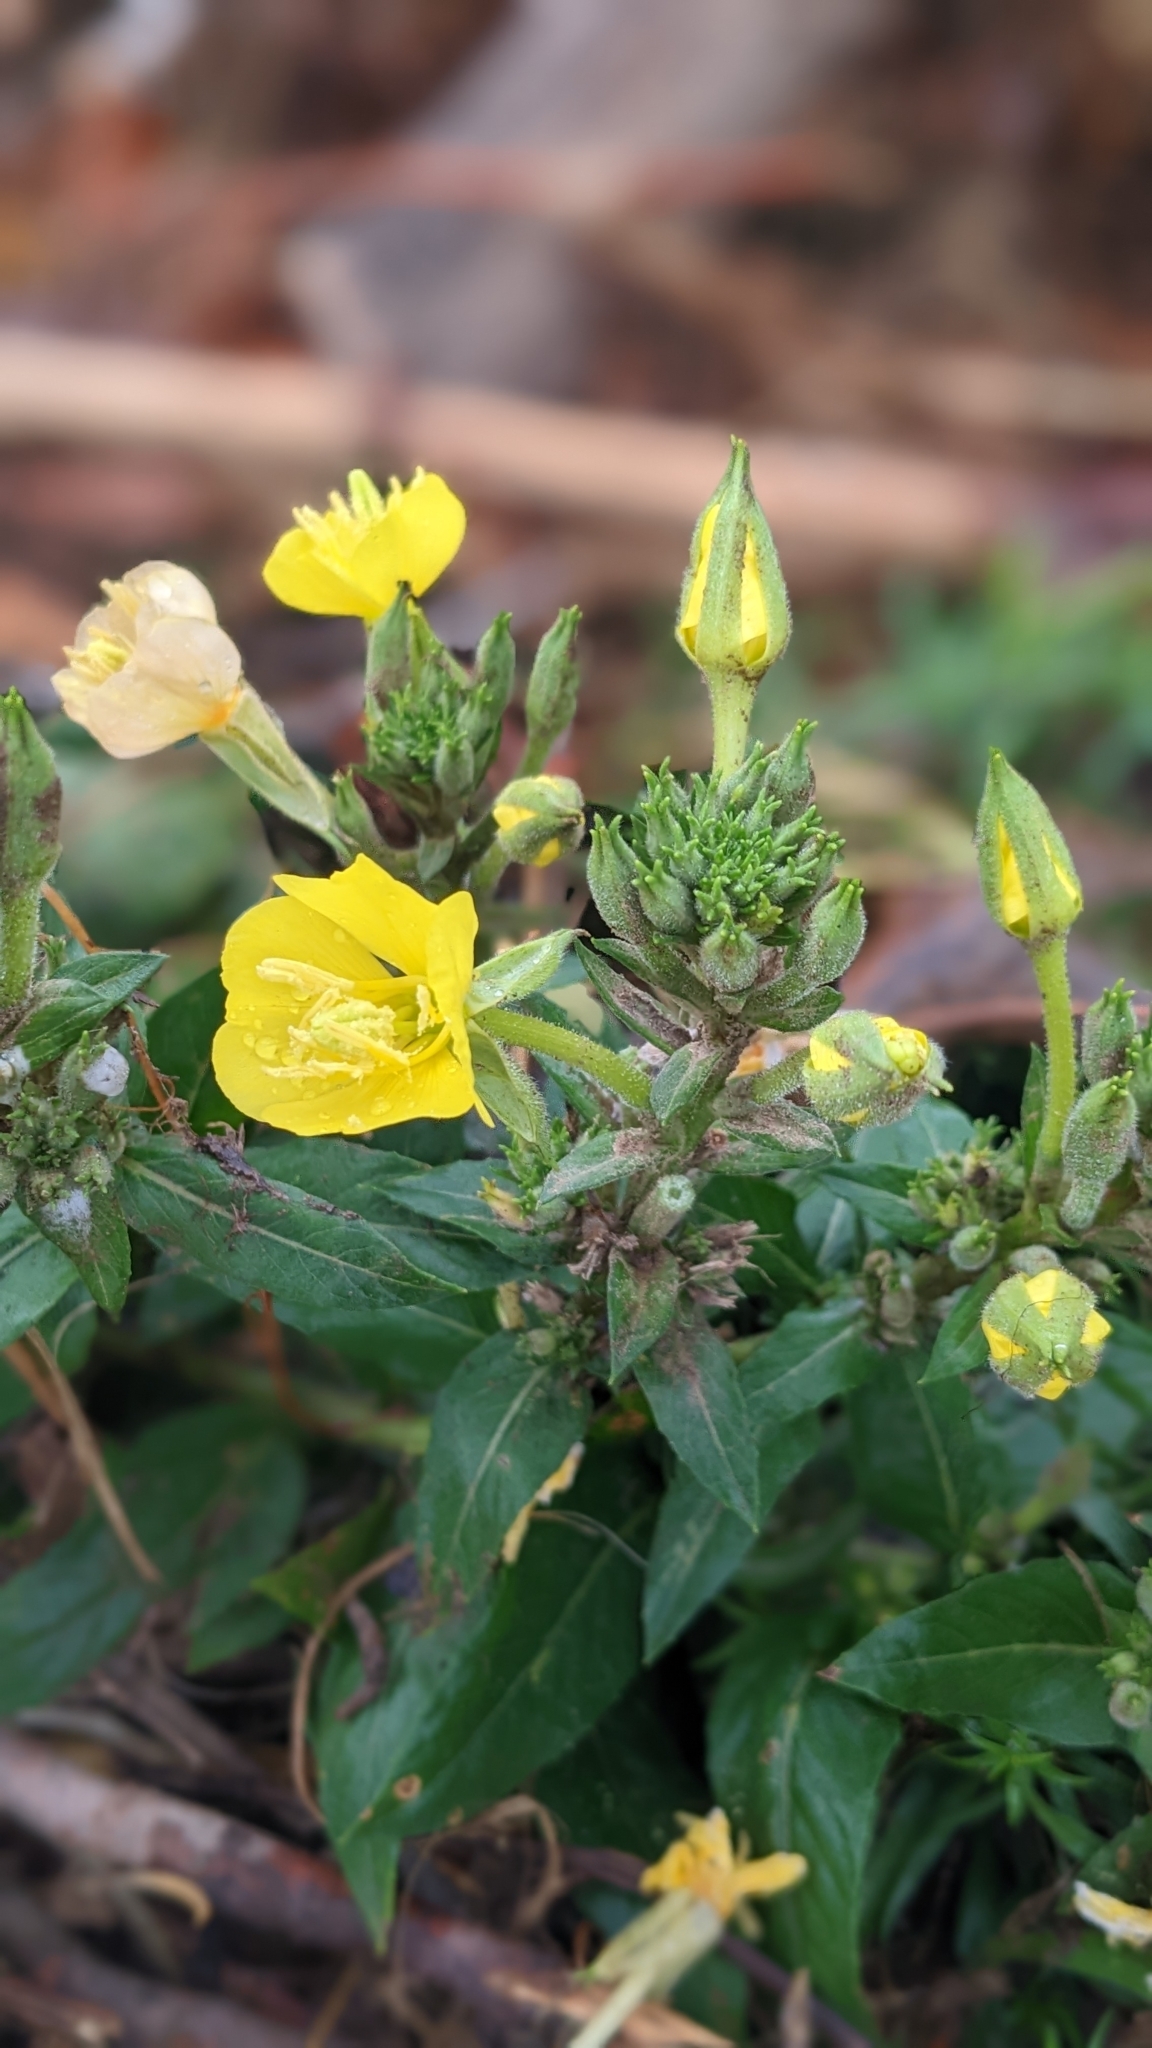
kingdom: Plantae
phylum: Tracheophyta
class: Magnoliopsida
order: Myrtales
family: Onagraceae
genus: Oenothera
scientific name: Oenothera biennis
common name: Common evening-primrose
